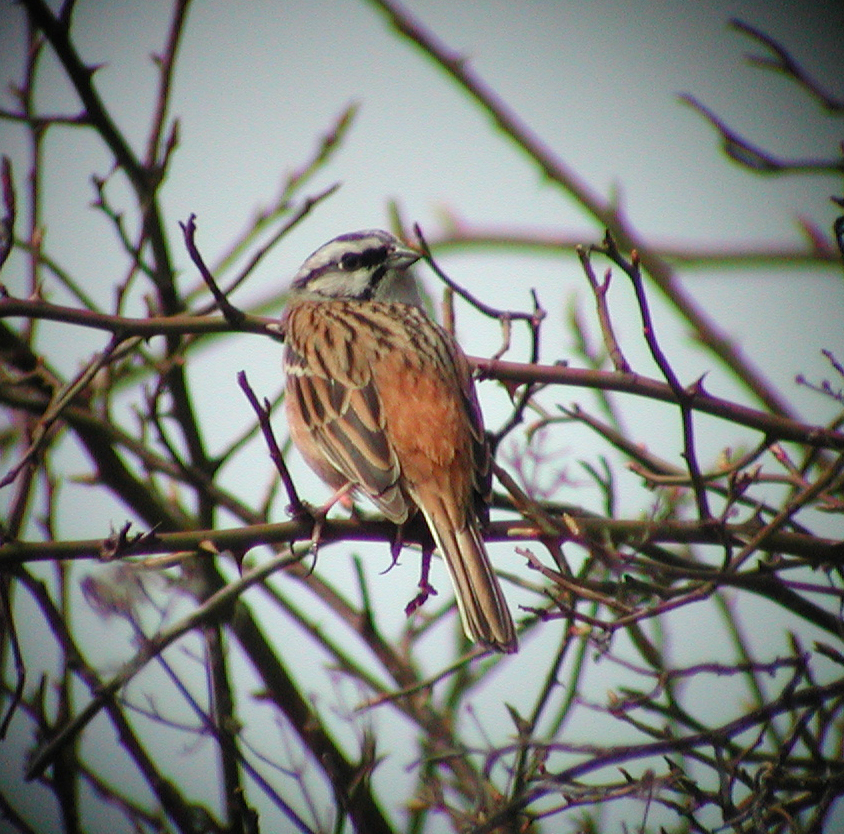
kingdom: Animalia
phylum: Chordata
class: Aves
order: Passeriformes
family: Emberizidae
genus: Emberiza
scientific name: Emberiza cia
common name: Rock bunting
